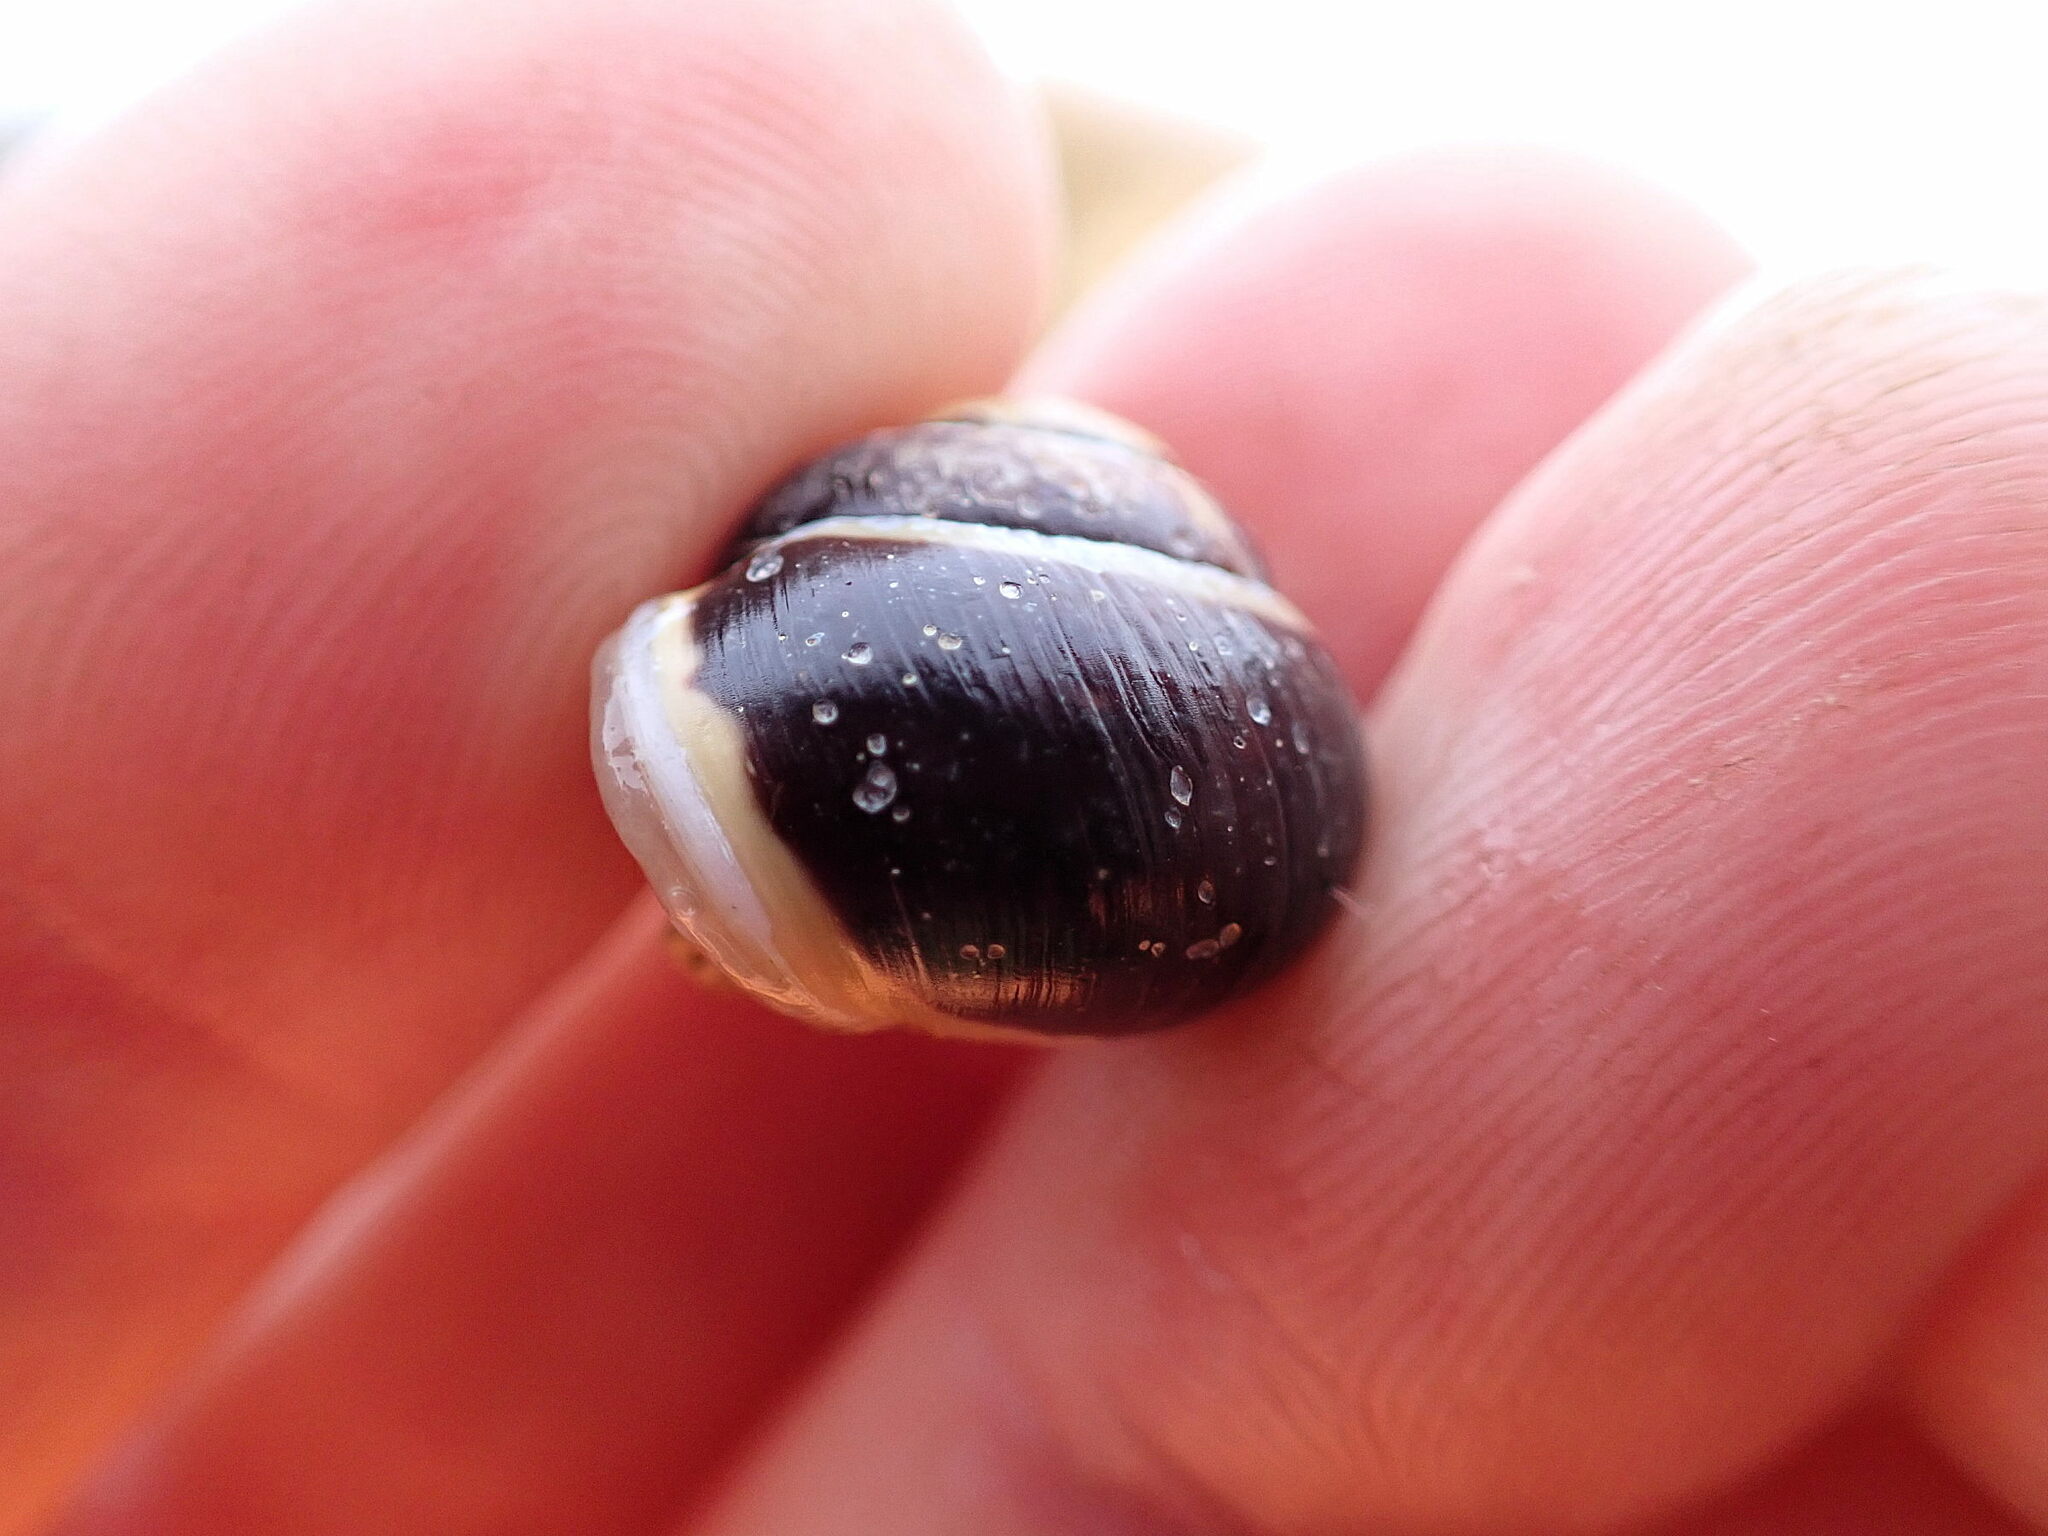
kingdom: Animalia
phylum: Mollusca
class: Gastropoda
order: Stylommatophora
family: Helicidae
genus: Cepaea
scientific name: Cepaea hortensis
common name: White-lip gardensnail
